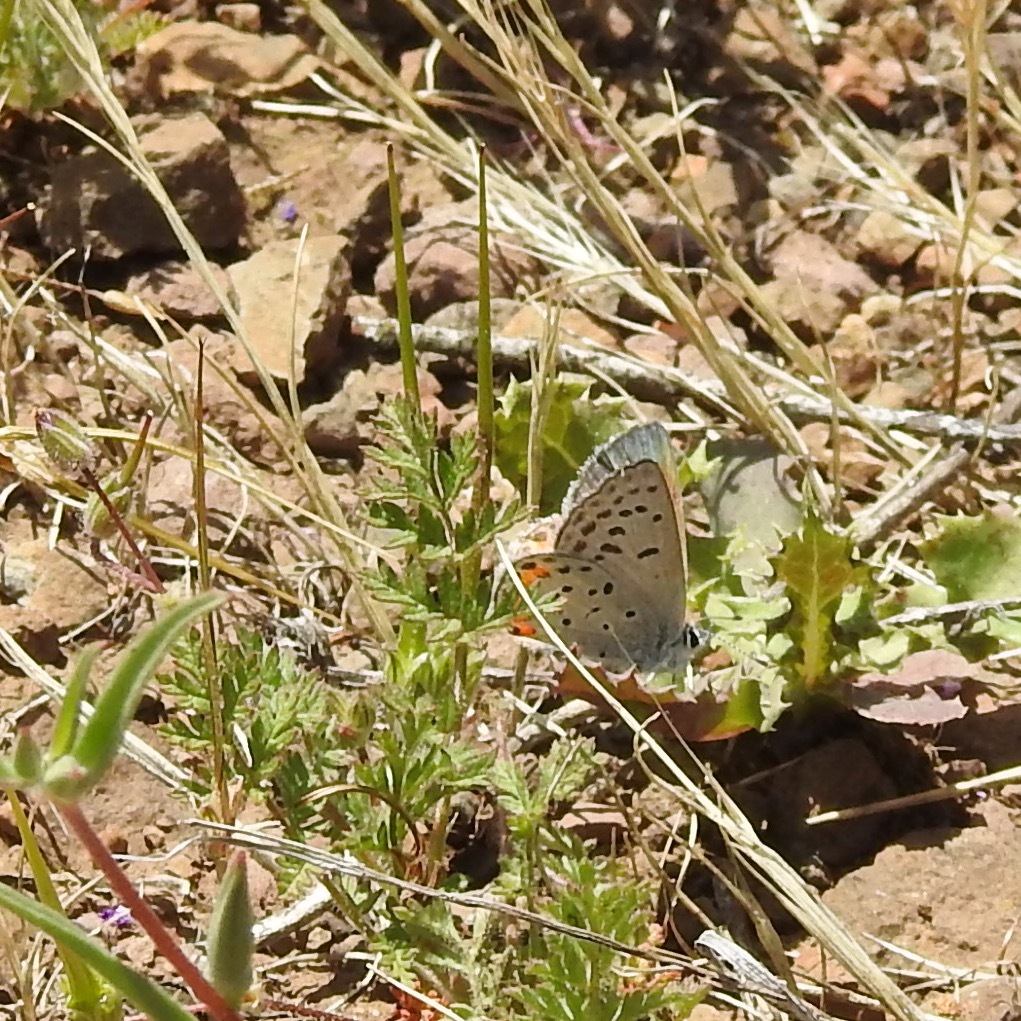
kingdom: Animalia
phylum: Arthropoda
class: Insecta
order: Lepidoptera
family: Lycaenidae
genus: Icaricia
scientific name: Icaricia acmon
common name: Acmon blue
